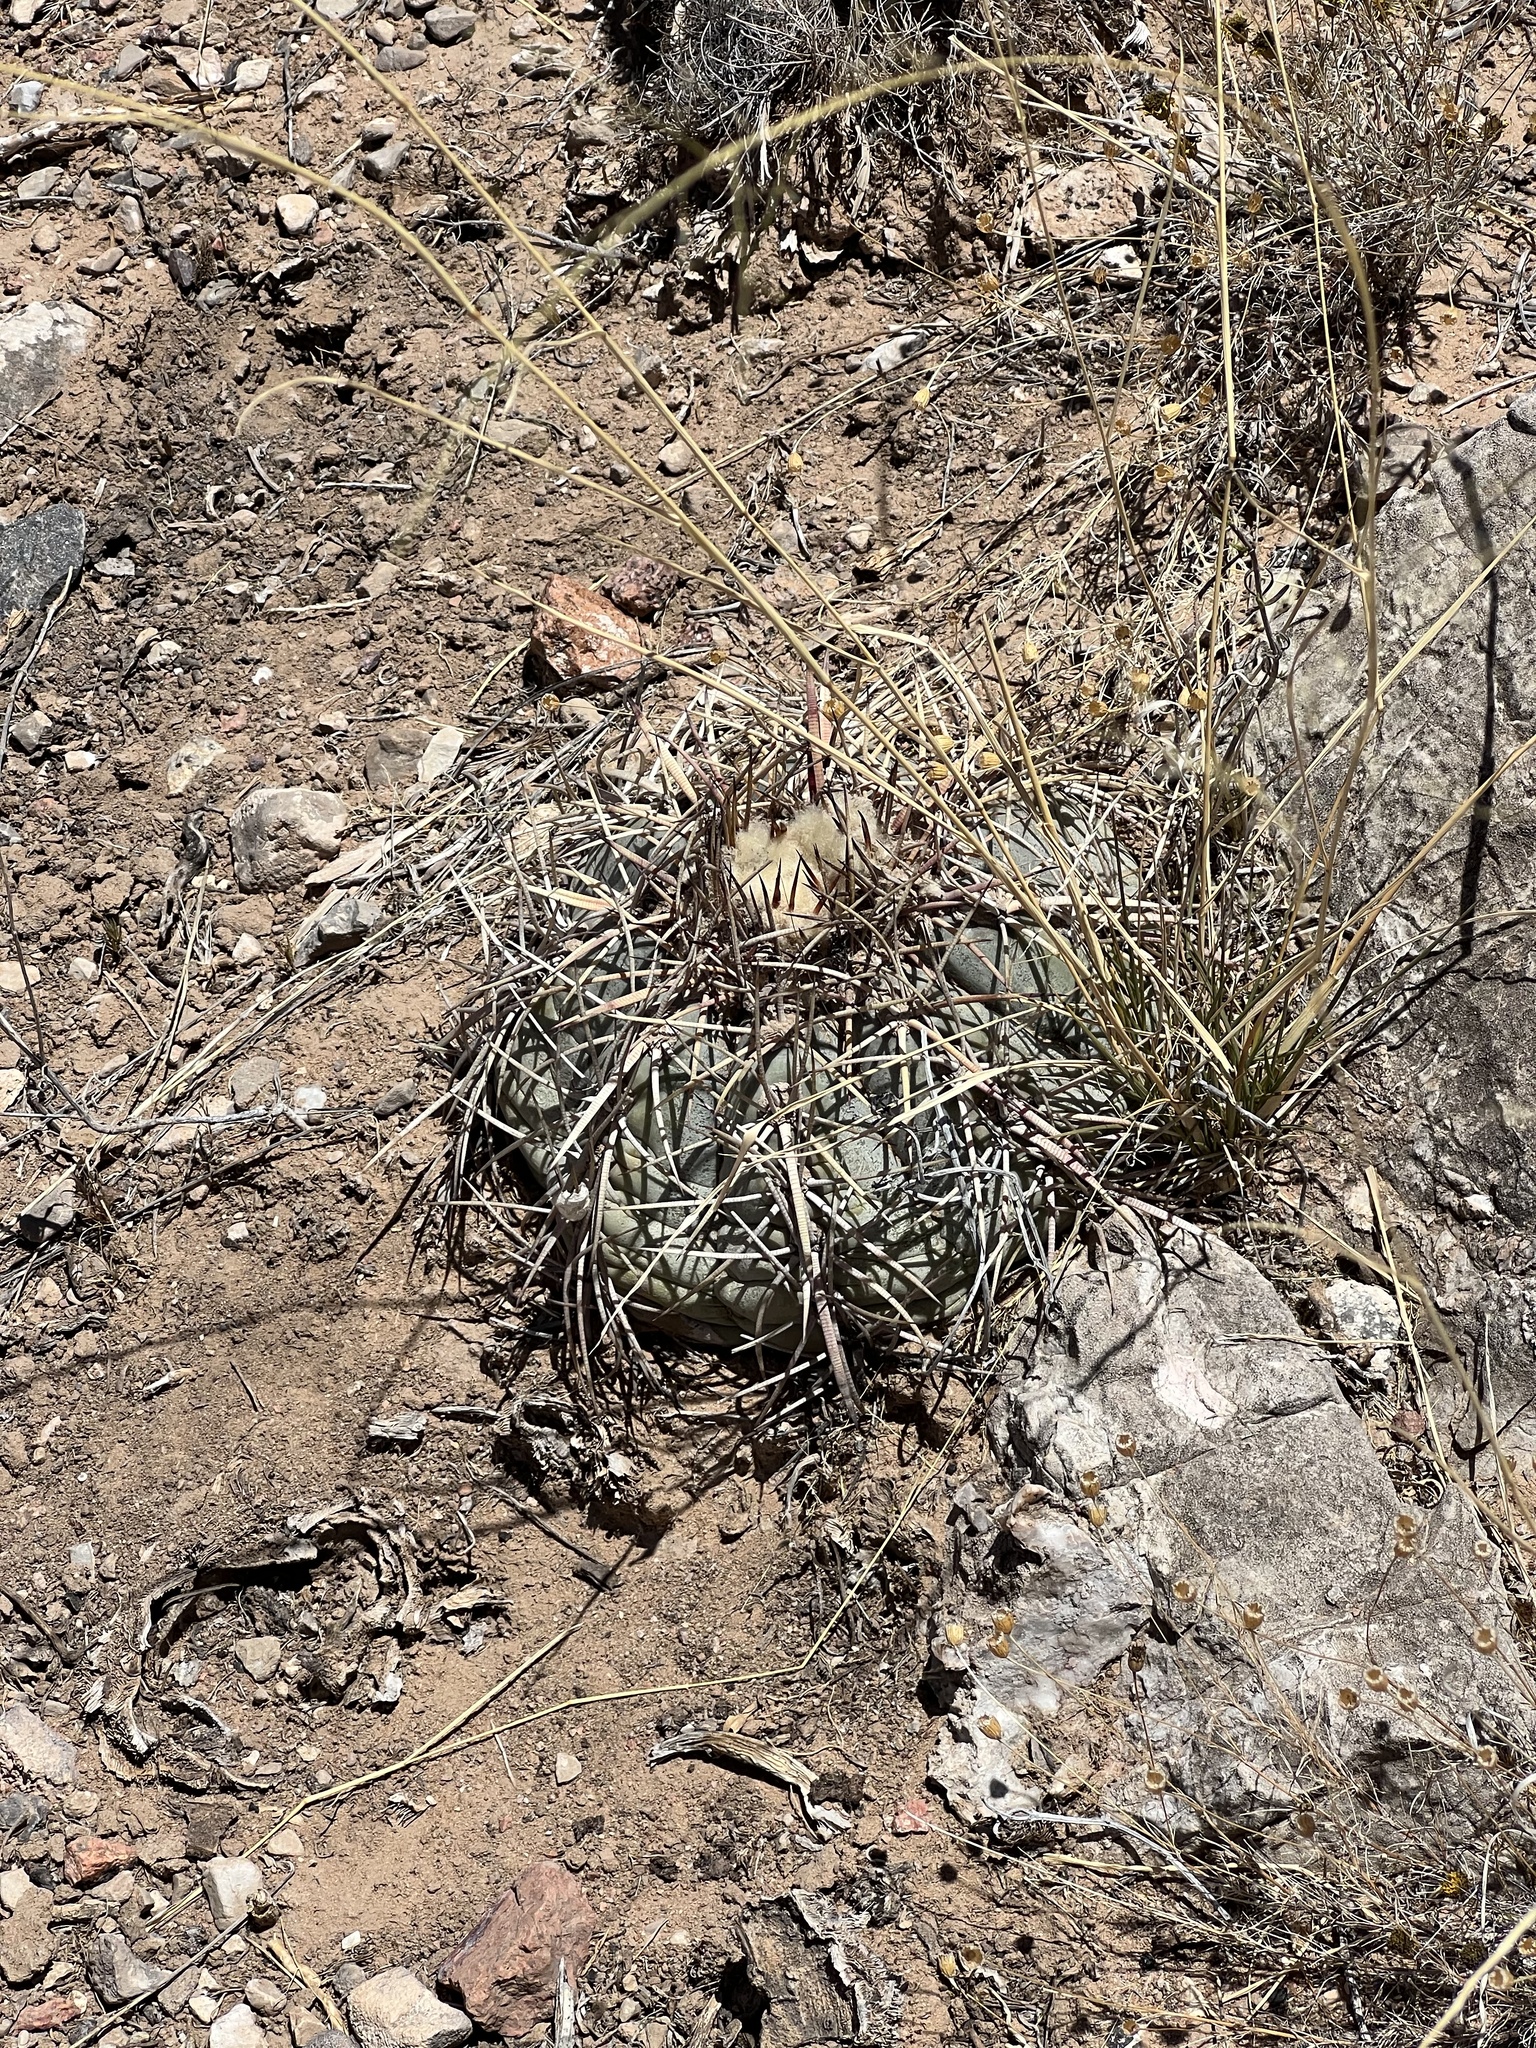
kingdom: Plantae
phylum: Tracheophyta
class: Magnoliopsida
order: Caryophyllales
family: Cactaceae
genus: Echinocactus
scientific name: Echinocactus horizonthalonius
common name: Devilshead
